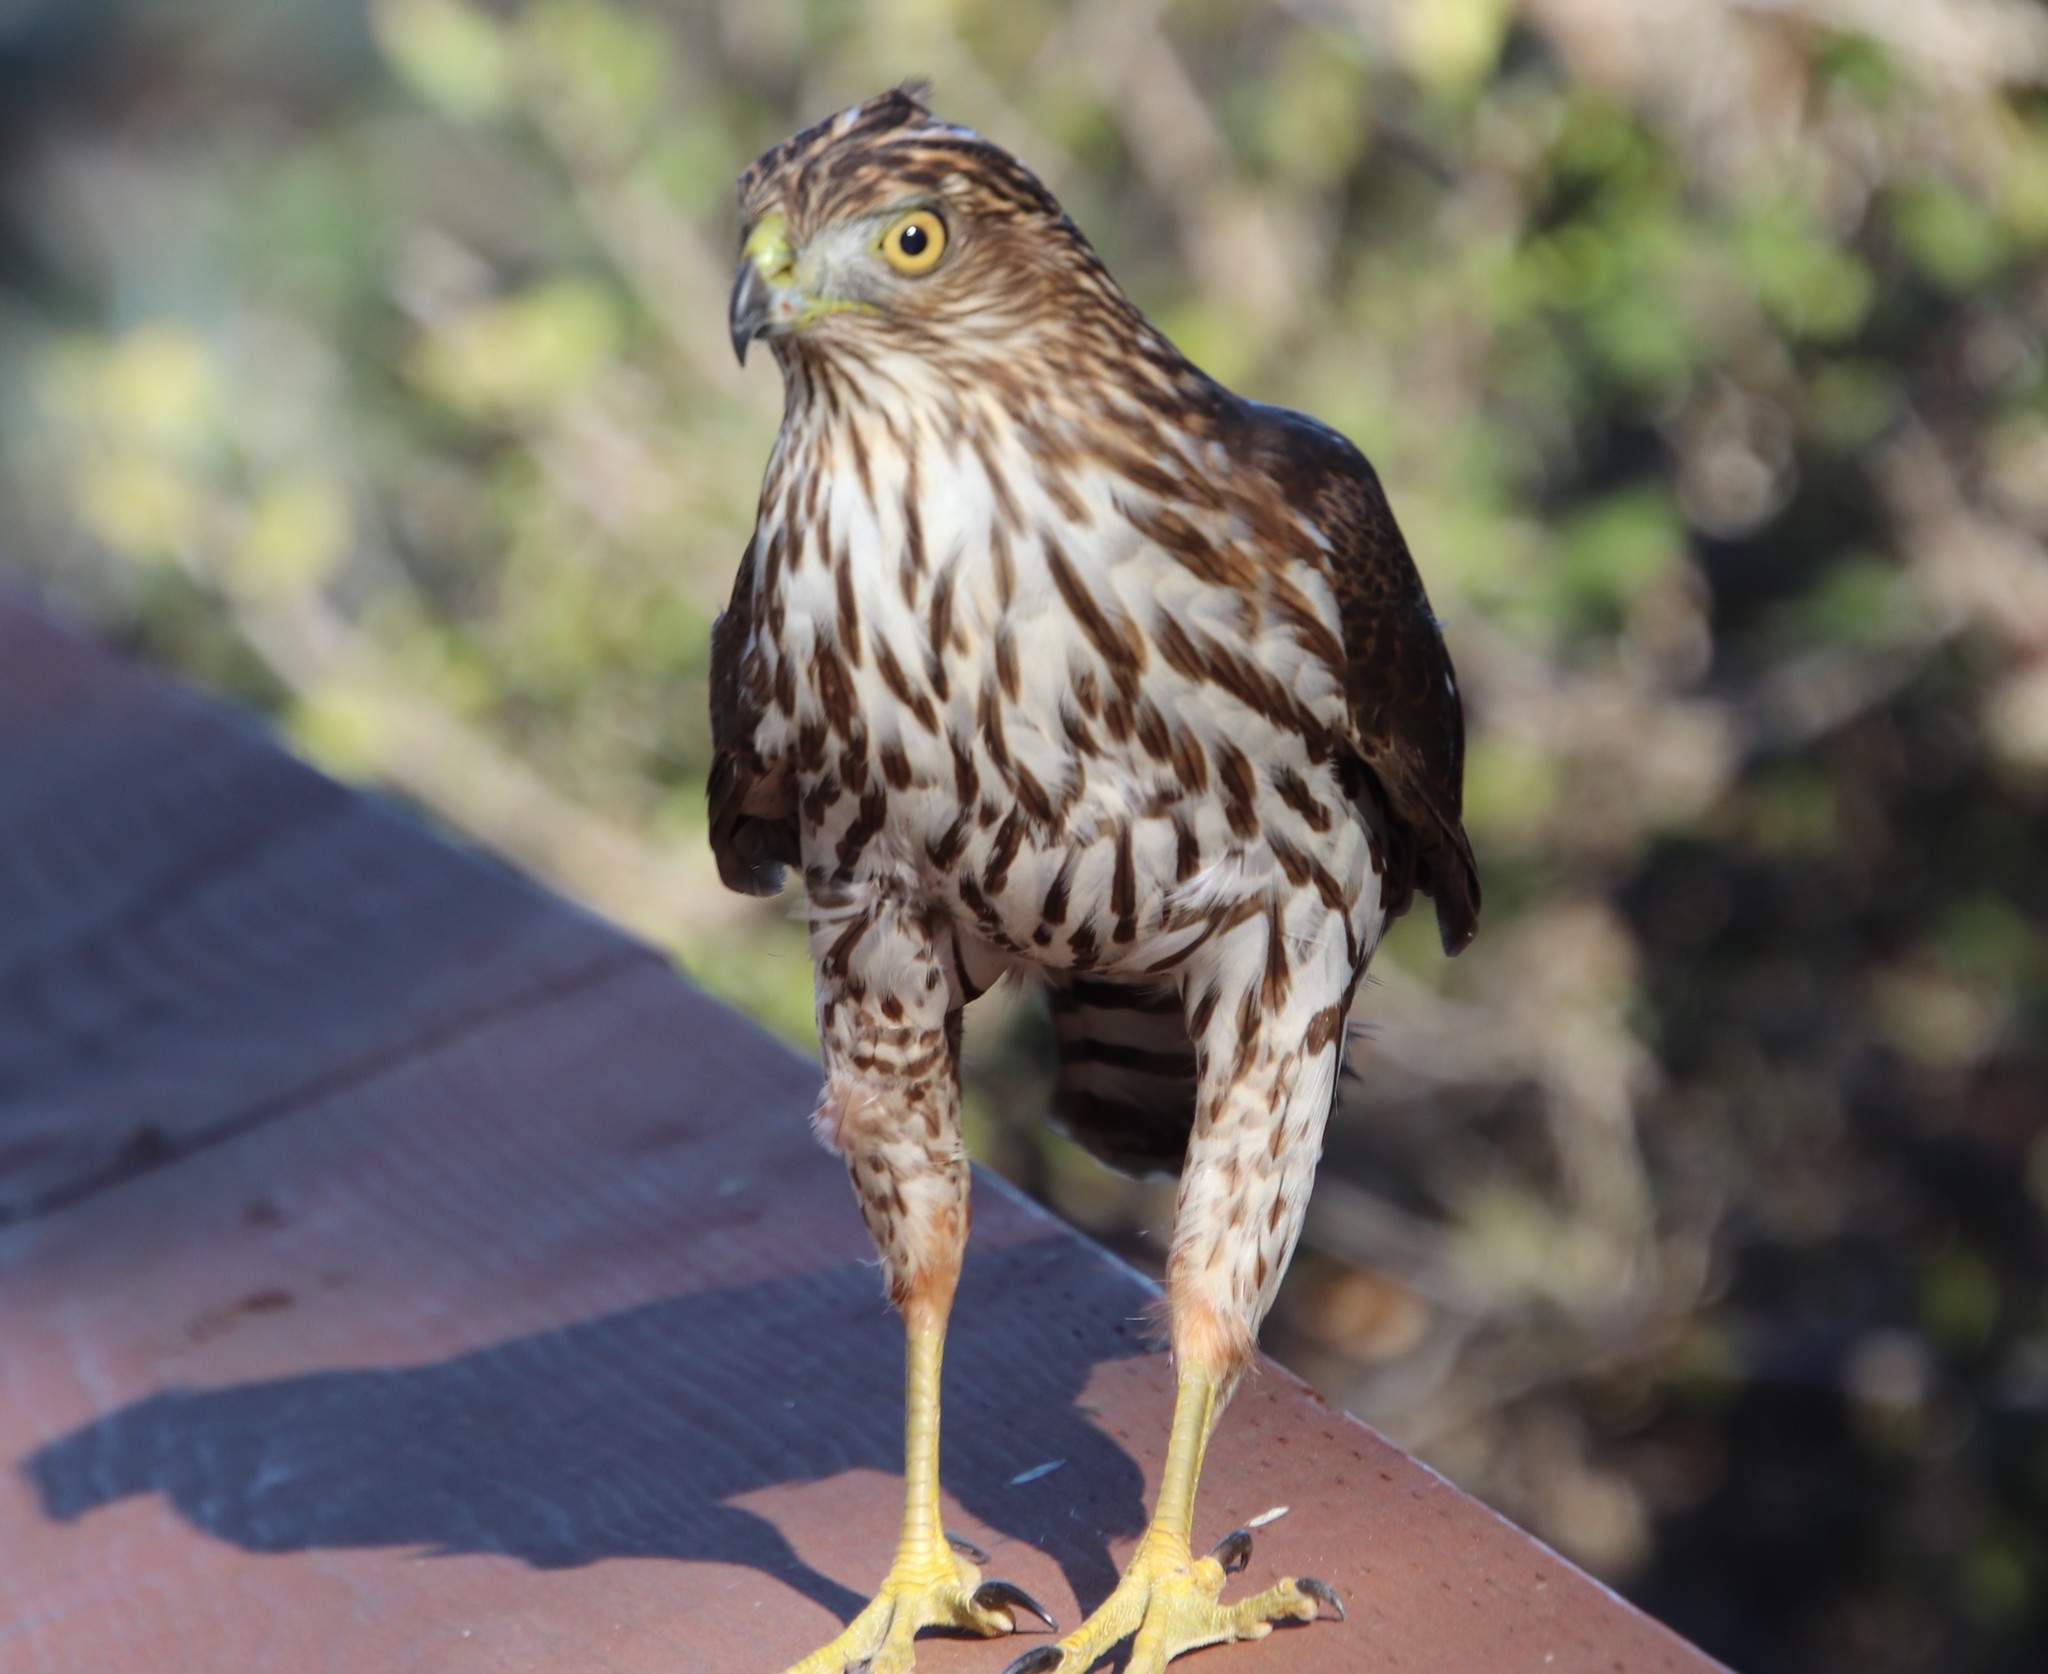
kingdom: Animalia
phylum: Chordata
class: Aves
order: Accipitriformes
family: Accipitridae
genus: Accipiter
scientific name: Accipiter cooperii
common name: Cooper's hawk
